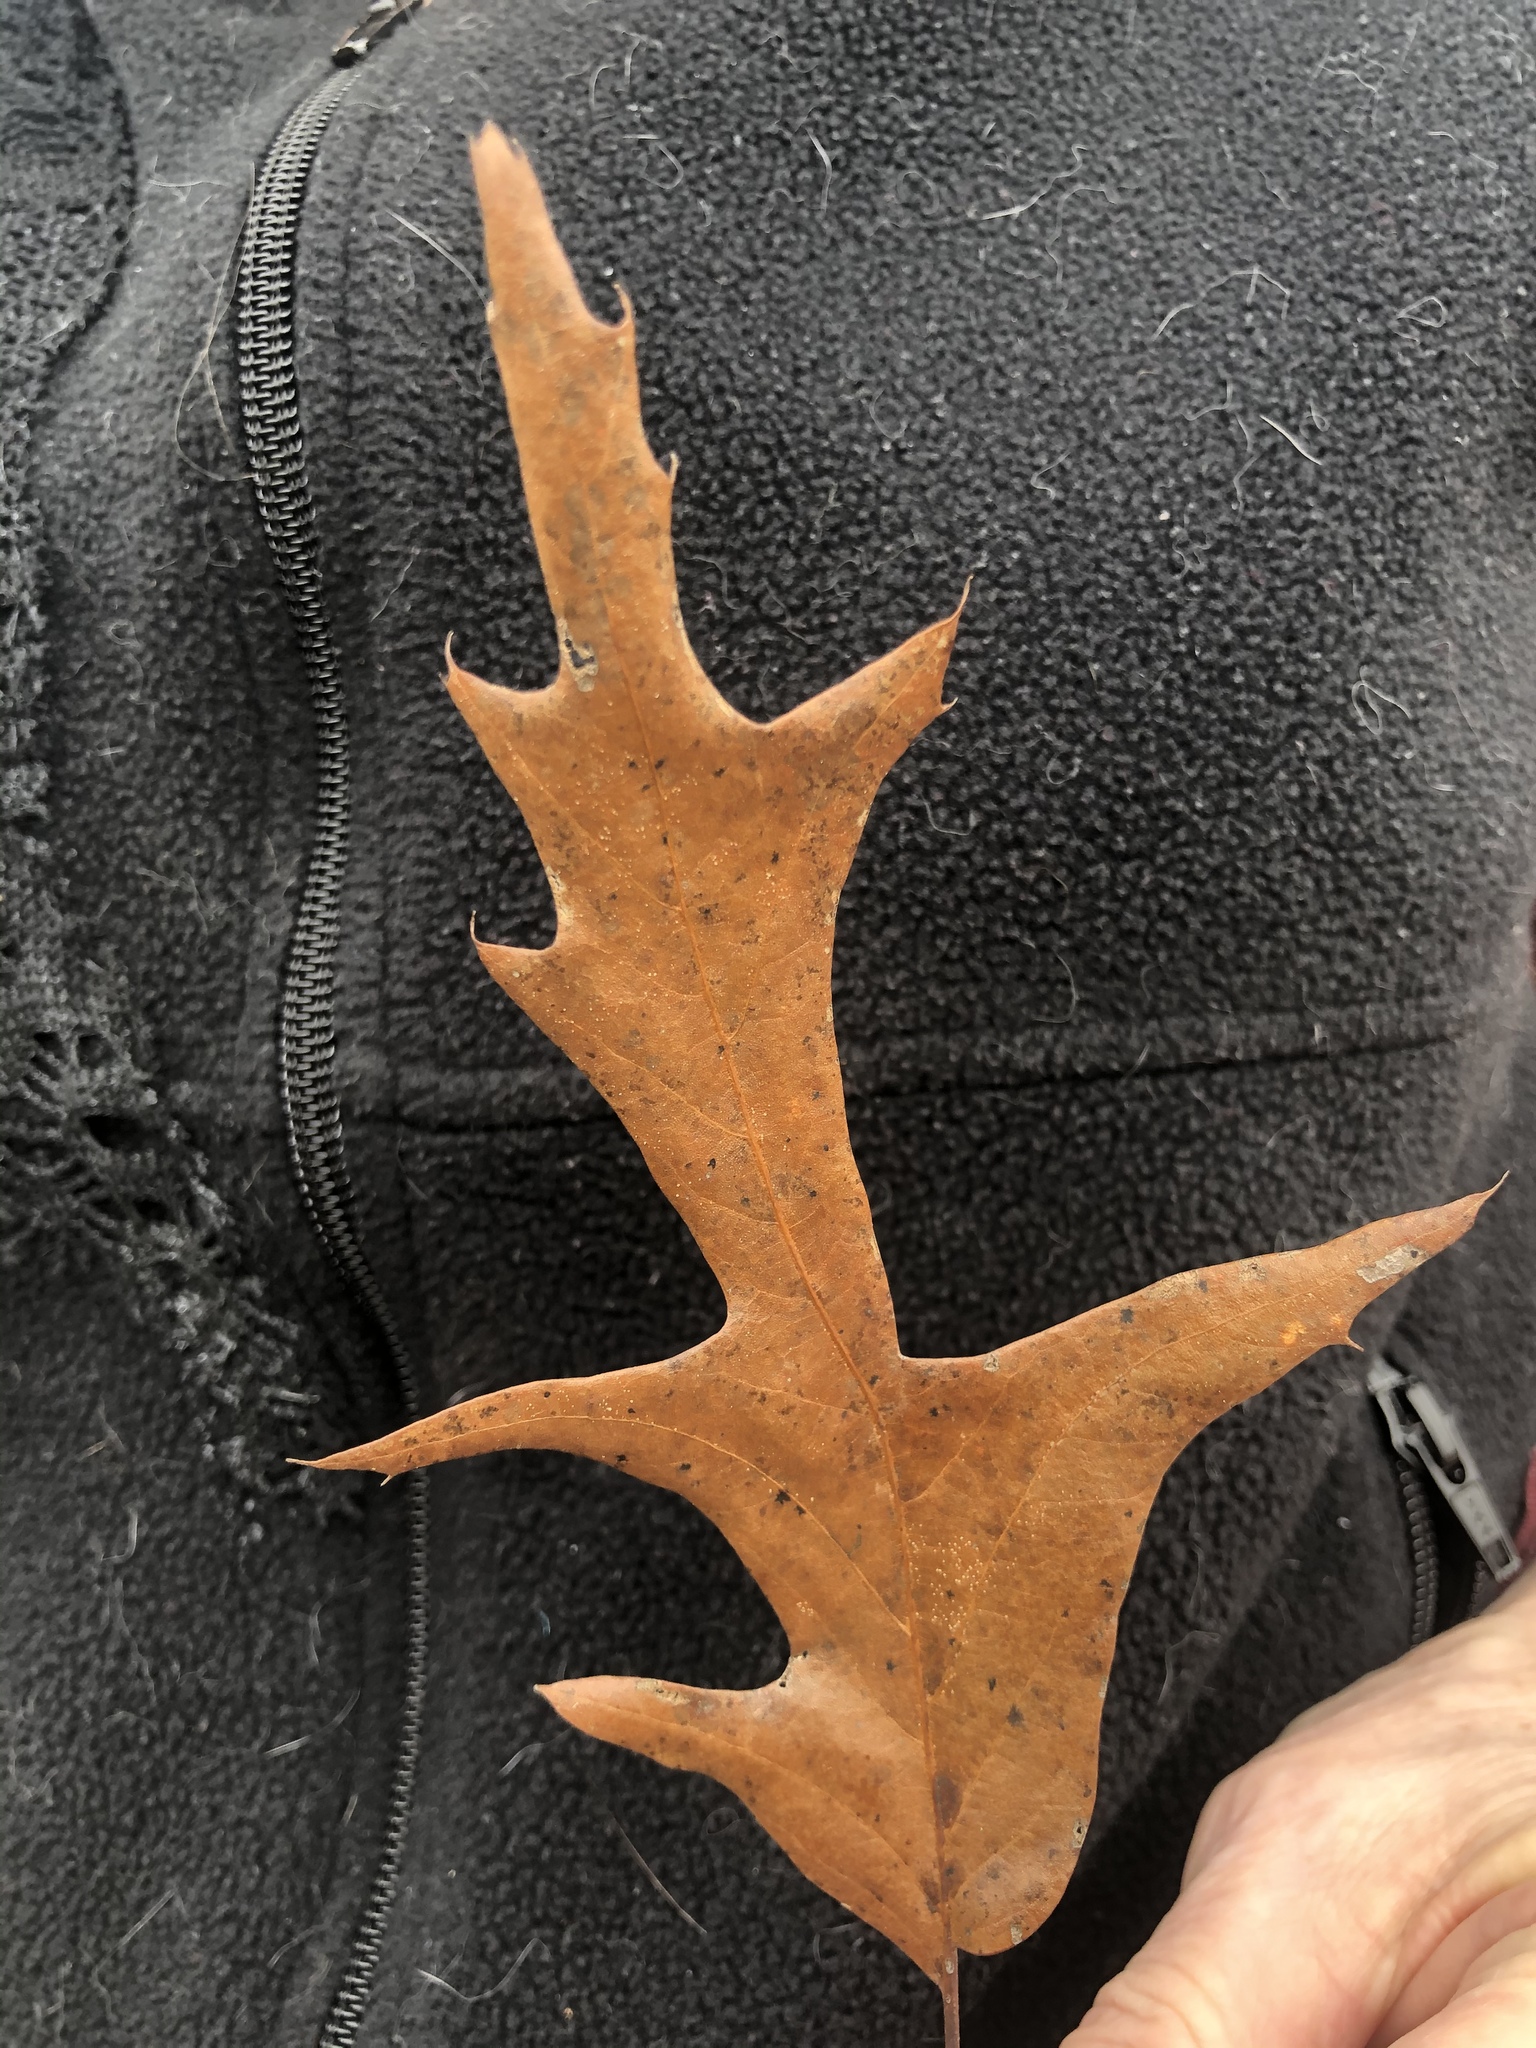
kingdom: Plantae
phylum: Tracheophyta
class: Magnoliopsida
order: Fagales
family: Fagaceae
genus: Quercus
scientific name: Quercus falcata
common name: Southern red oak
